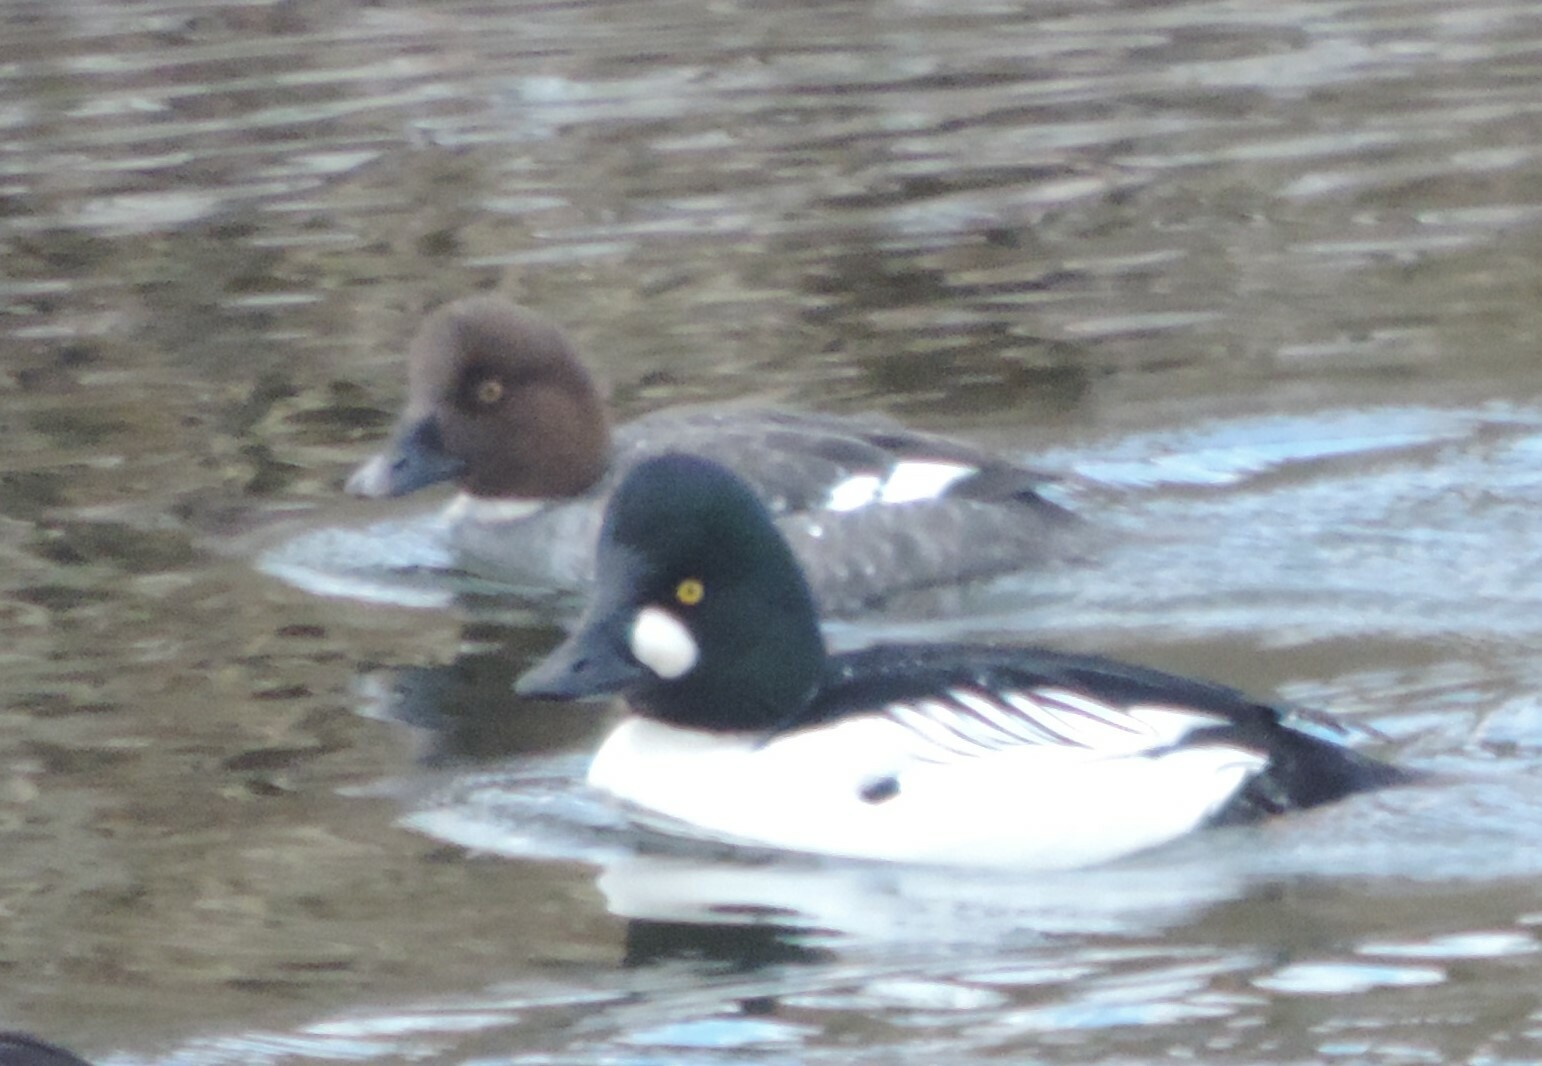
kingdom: Animalia
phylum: Chordata
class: Aves
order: Anseriformes
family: Anatidae
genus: Bucephala
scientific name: Bucephala clangula
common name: Common goldeneye
